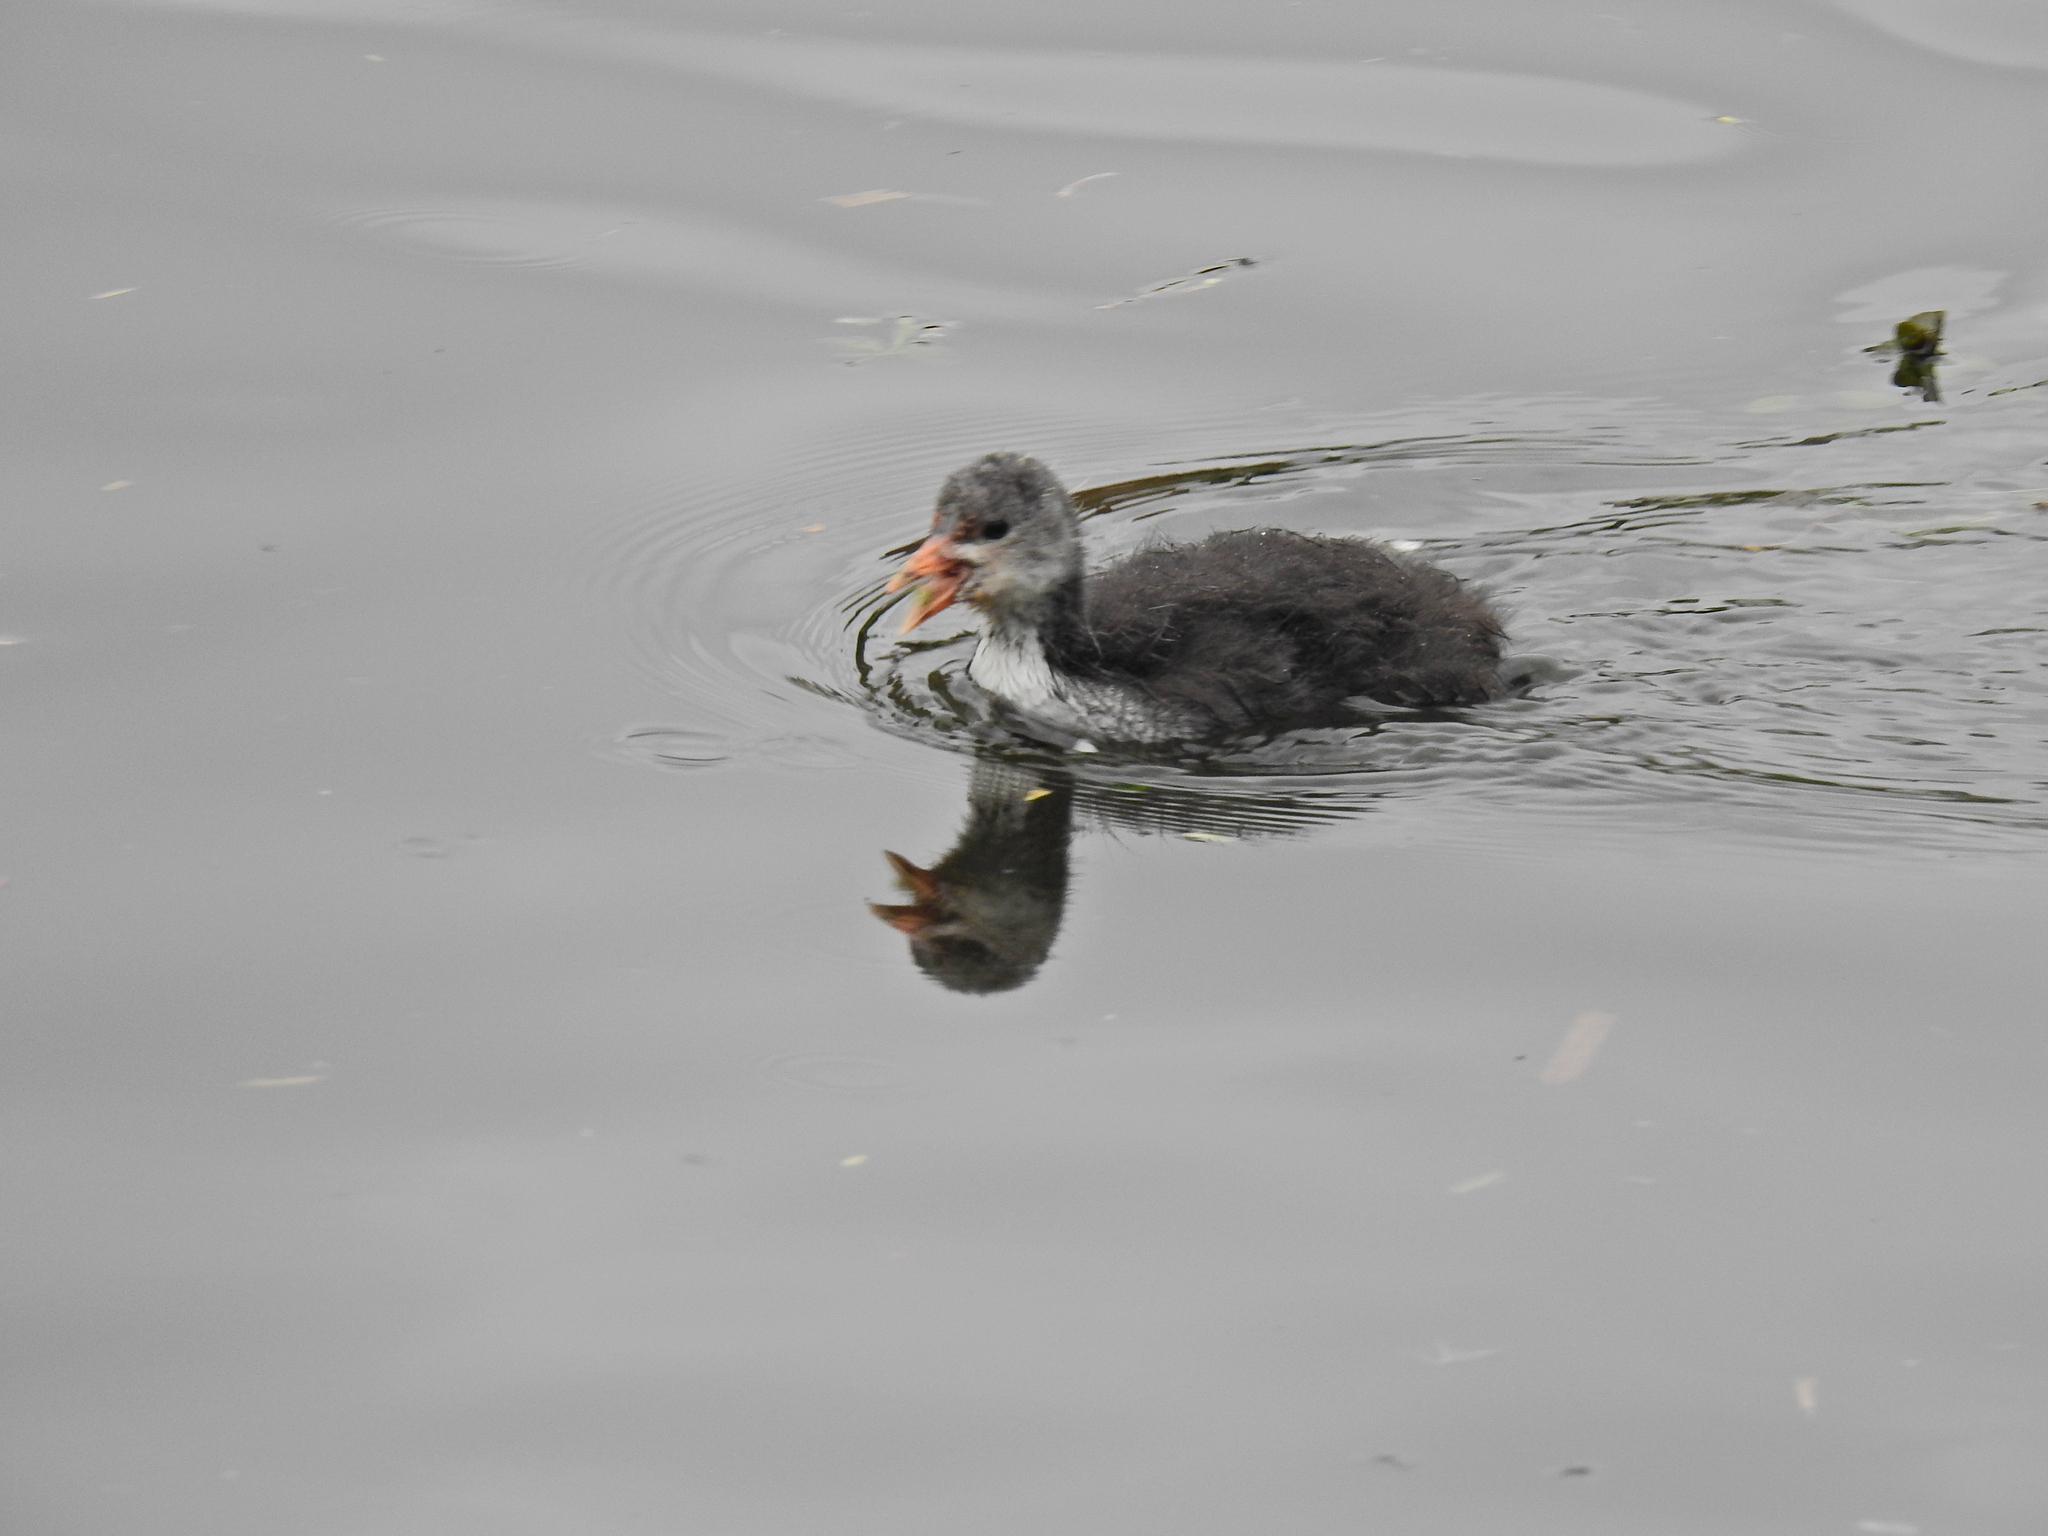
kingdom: Animalia
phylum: Chordata
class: Aves
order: Gruiformes
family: Rallidae
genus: Fulica
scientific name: Fulica atra
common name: Eurasian coot
